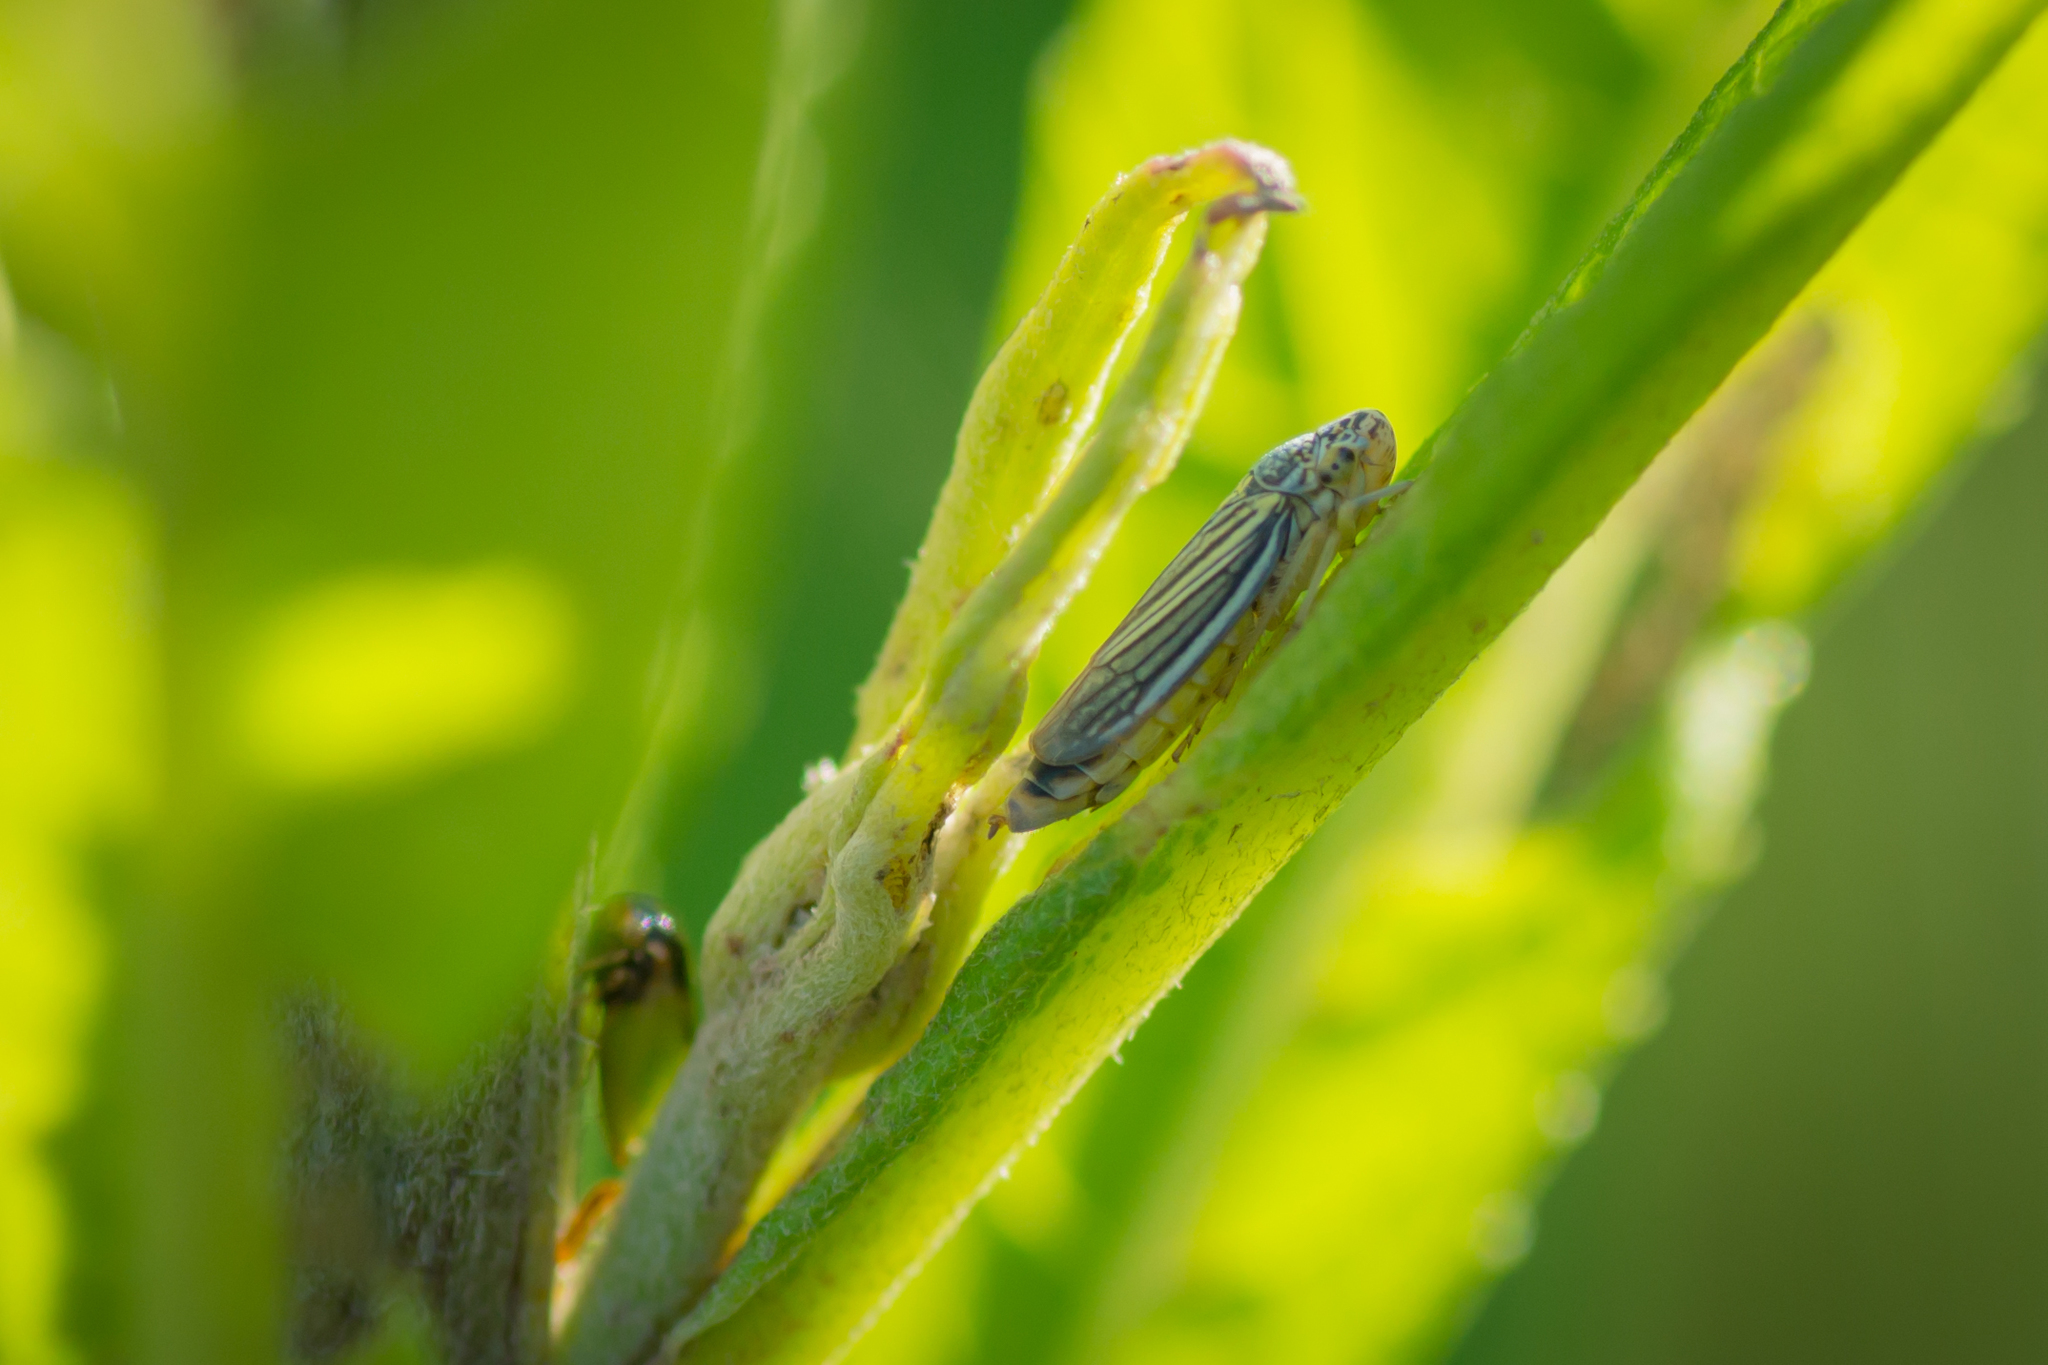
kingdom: Animalia
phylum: Arthropoda
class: Insecta
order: Hemiptera
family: Cicadellidae
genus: Neokolla
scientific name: Neokolla hieroglyphica
